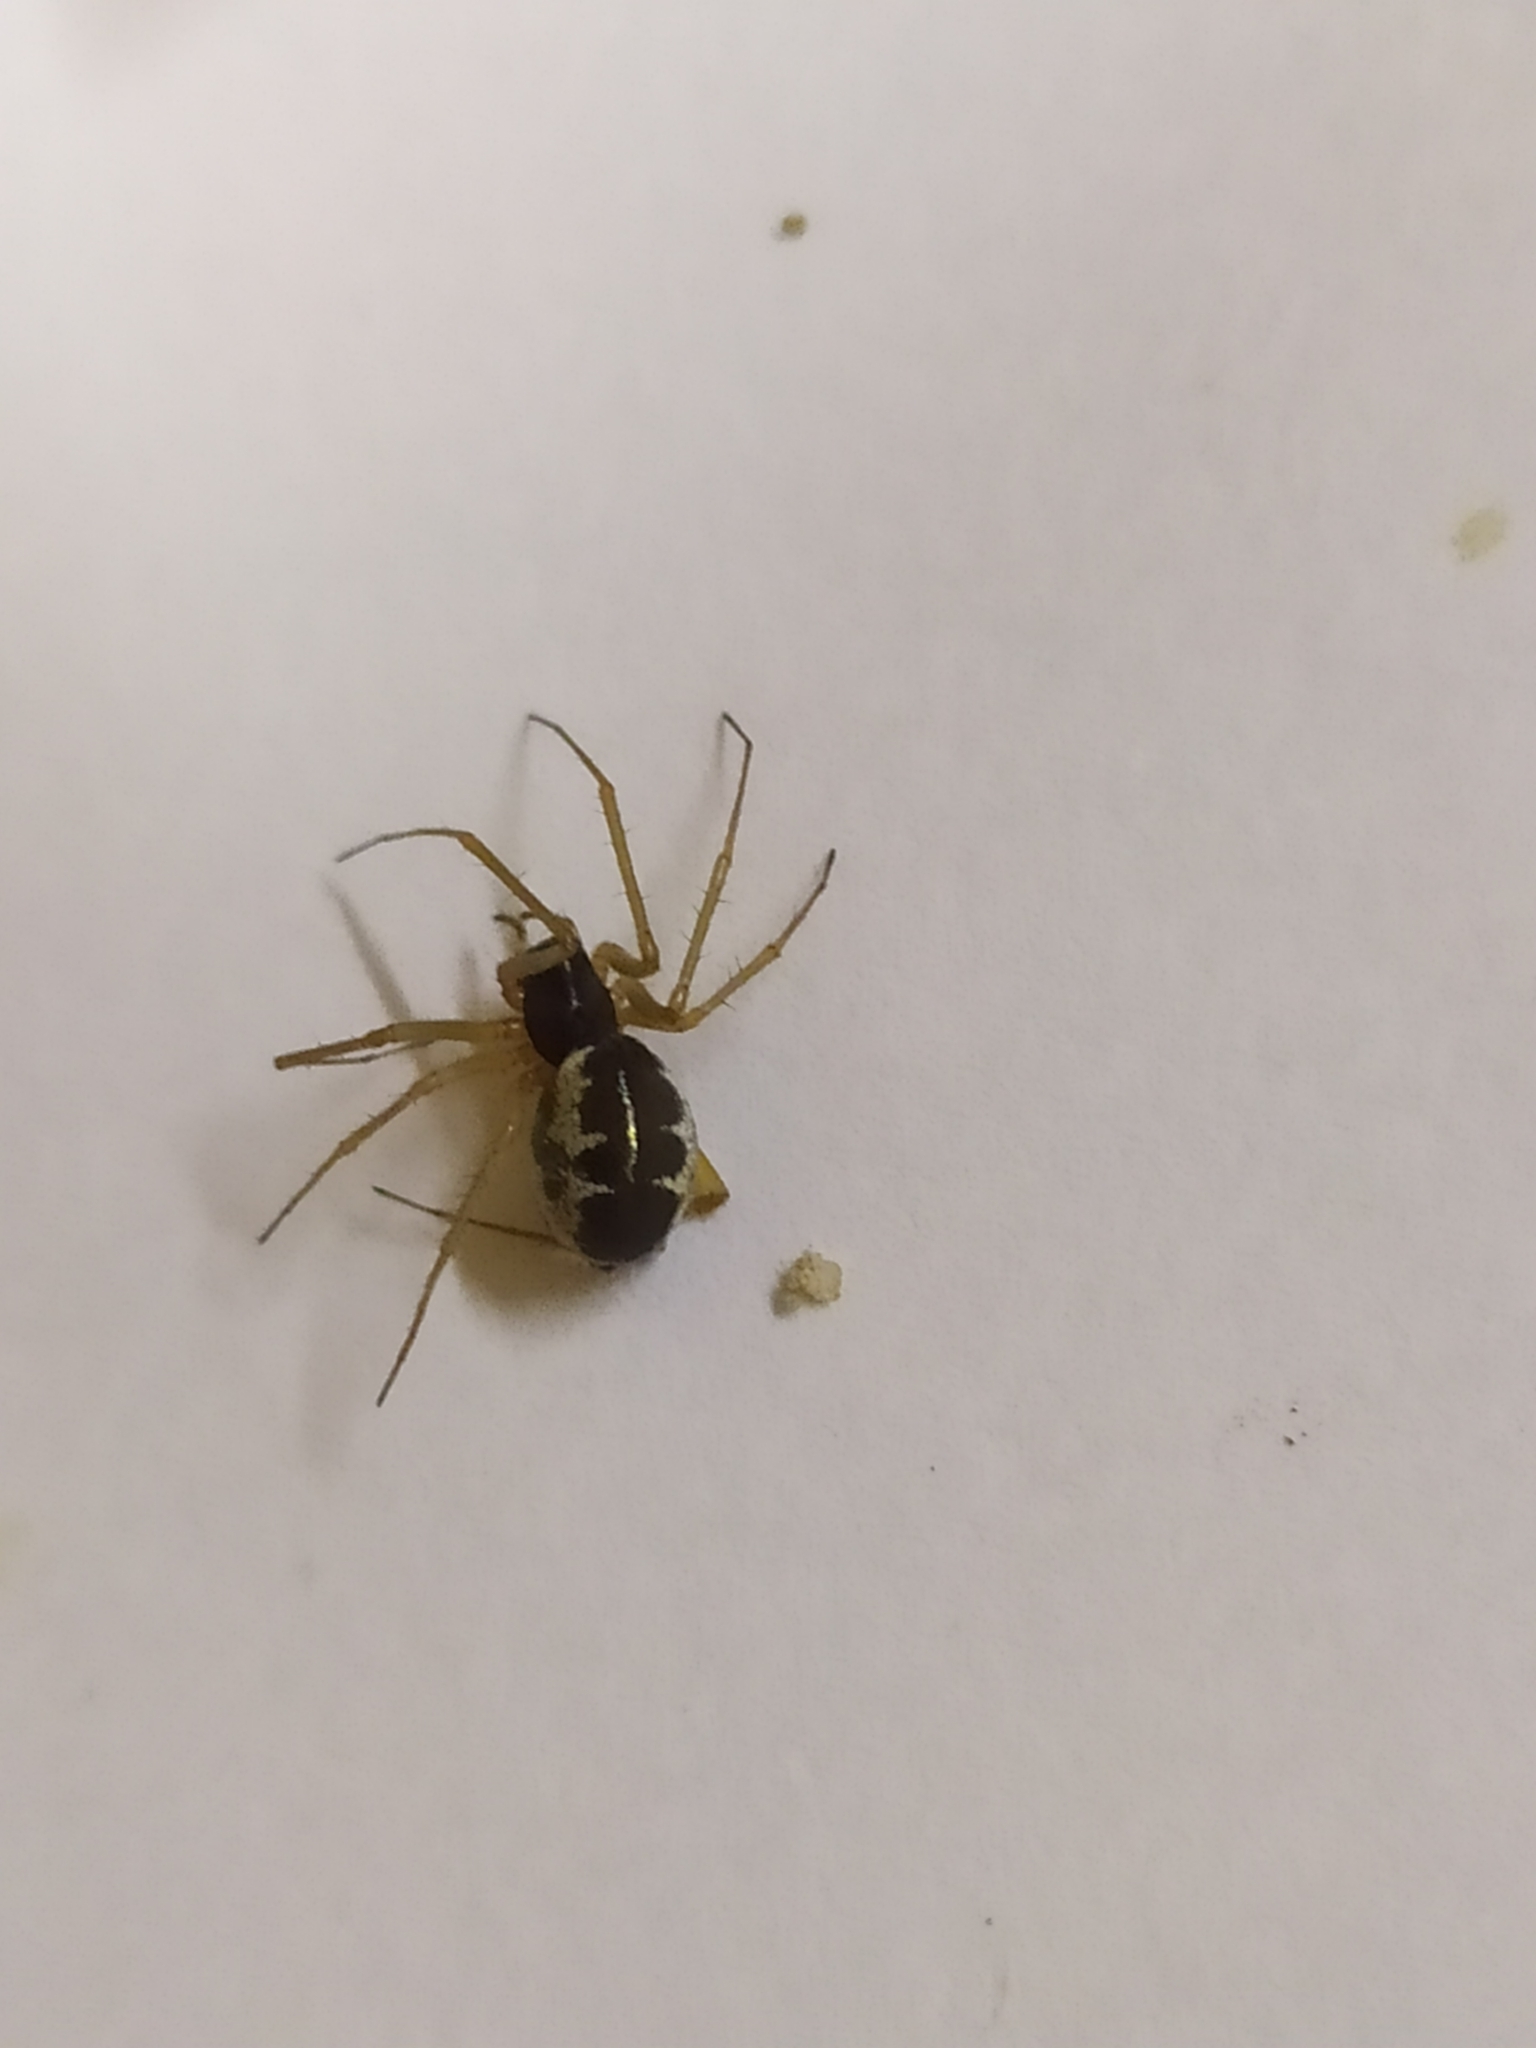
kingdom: Animalia
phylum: Arthropoda
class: Arachnida
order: Araneae
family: Linyphiidae
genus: Linyphia
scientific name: Linyphia hortensis
